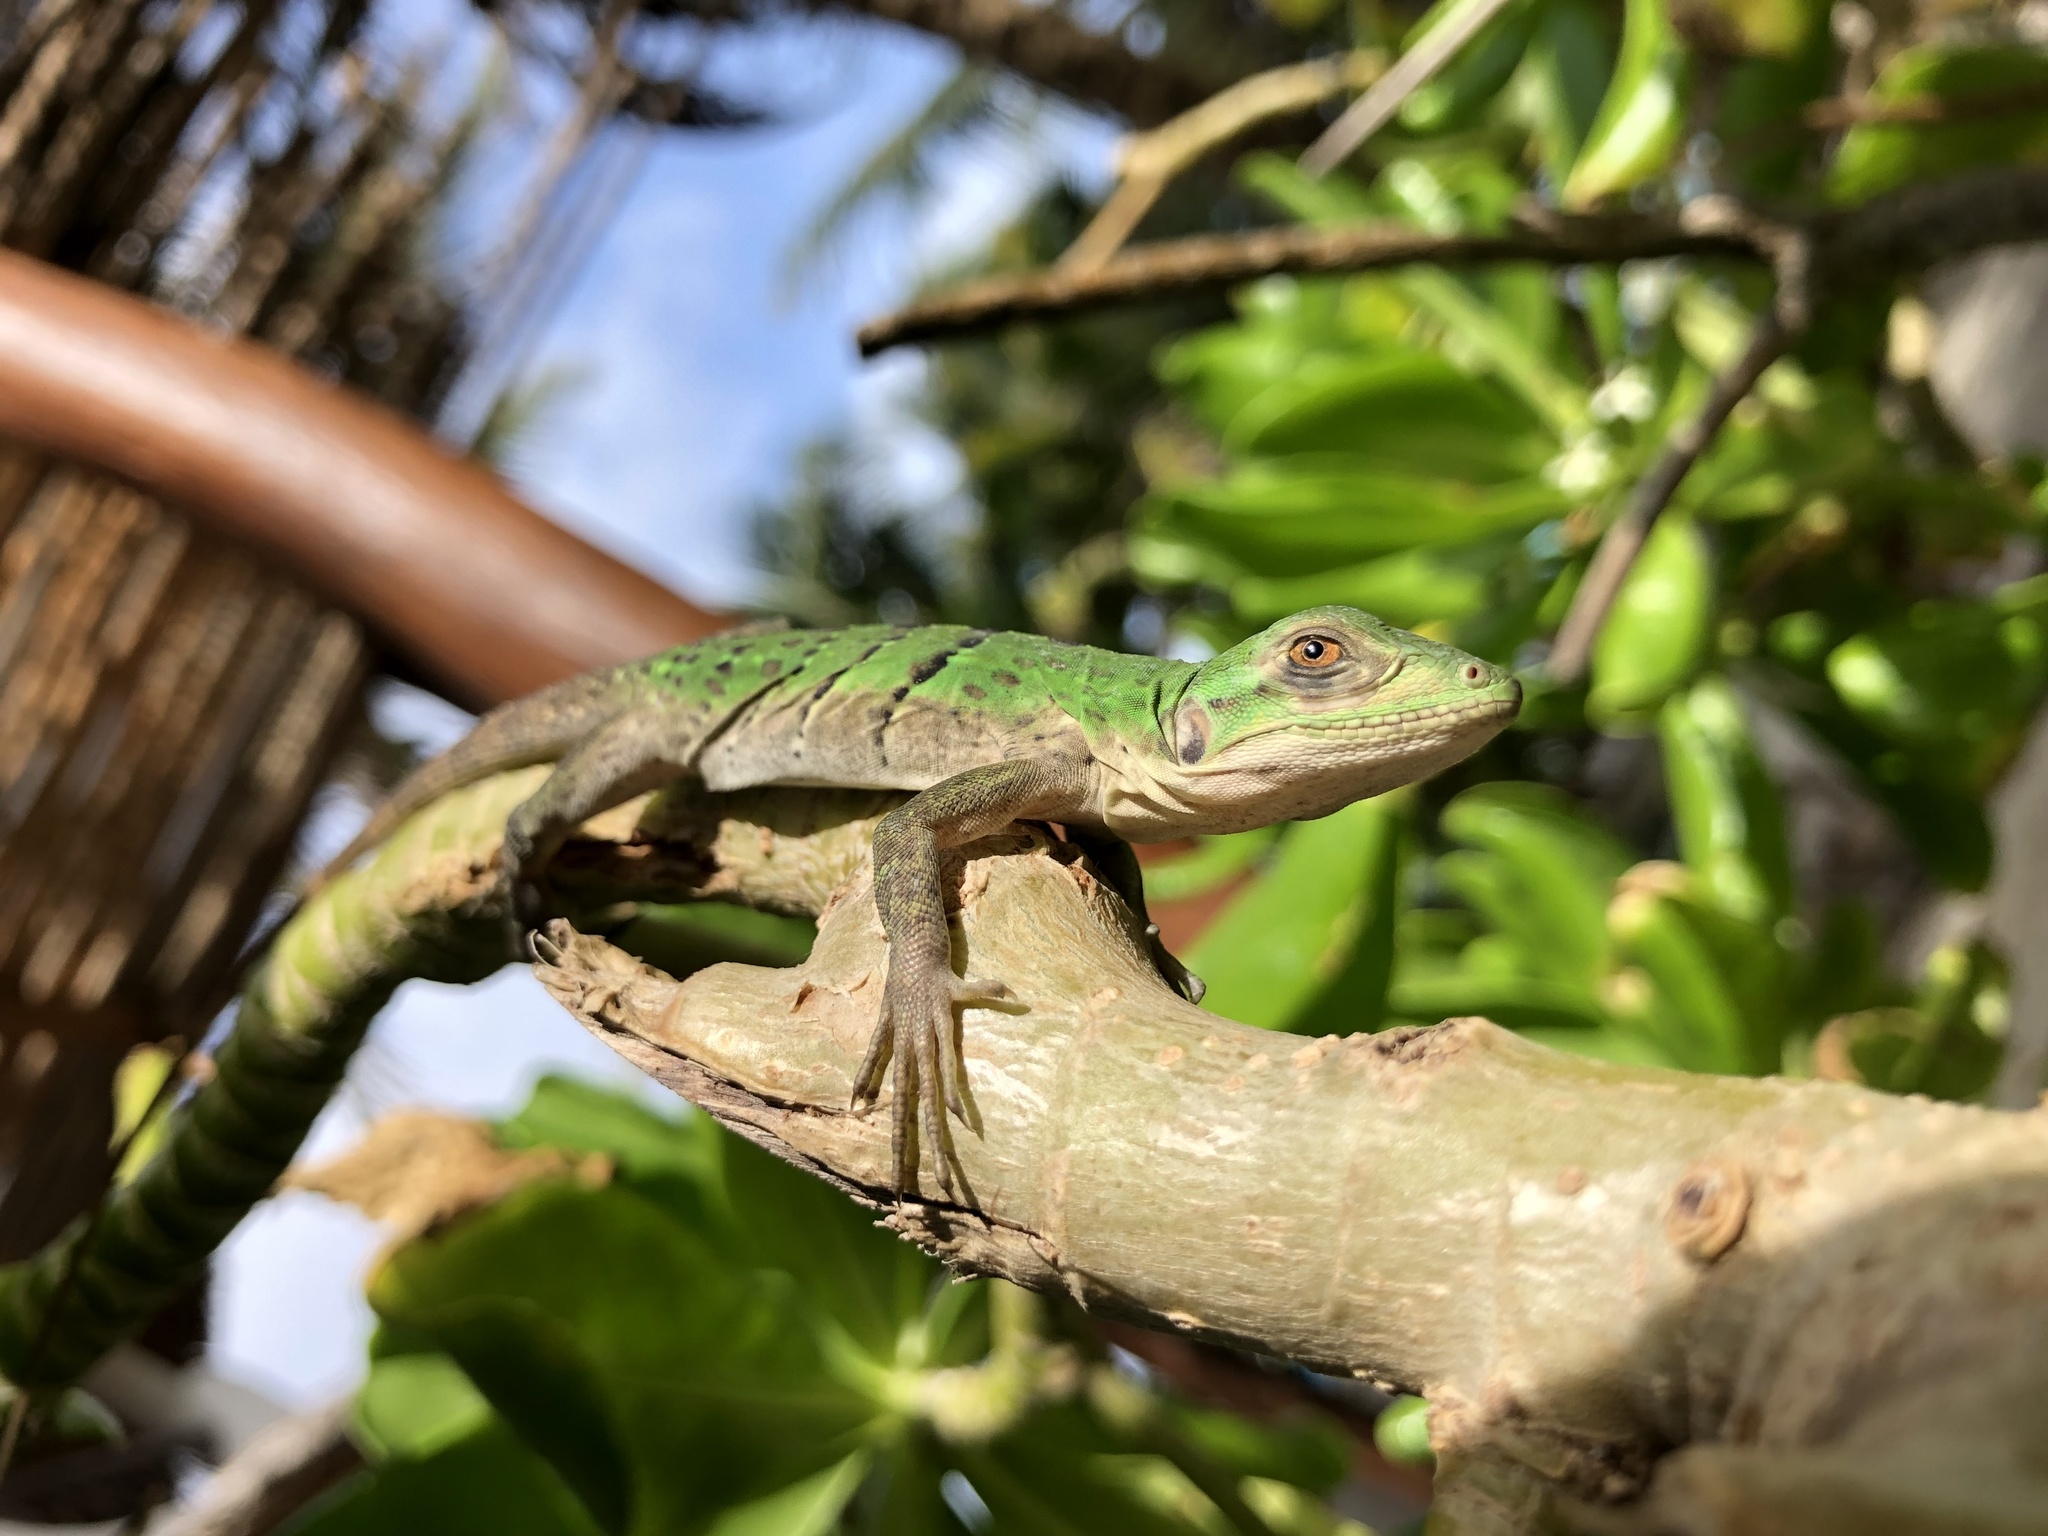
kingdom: Animalia
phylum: Chordata
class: Squamata
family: Iguanidae
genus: Ctenosaura
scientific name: Ctenosaura similis
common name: Black spiny-tailed iguana
